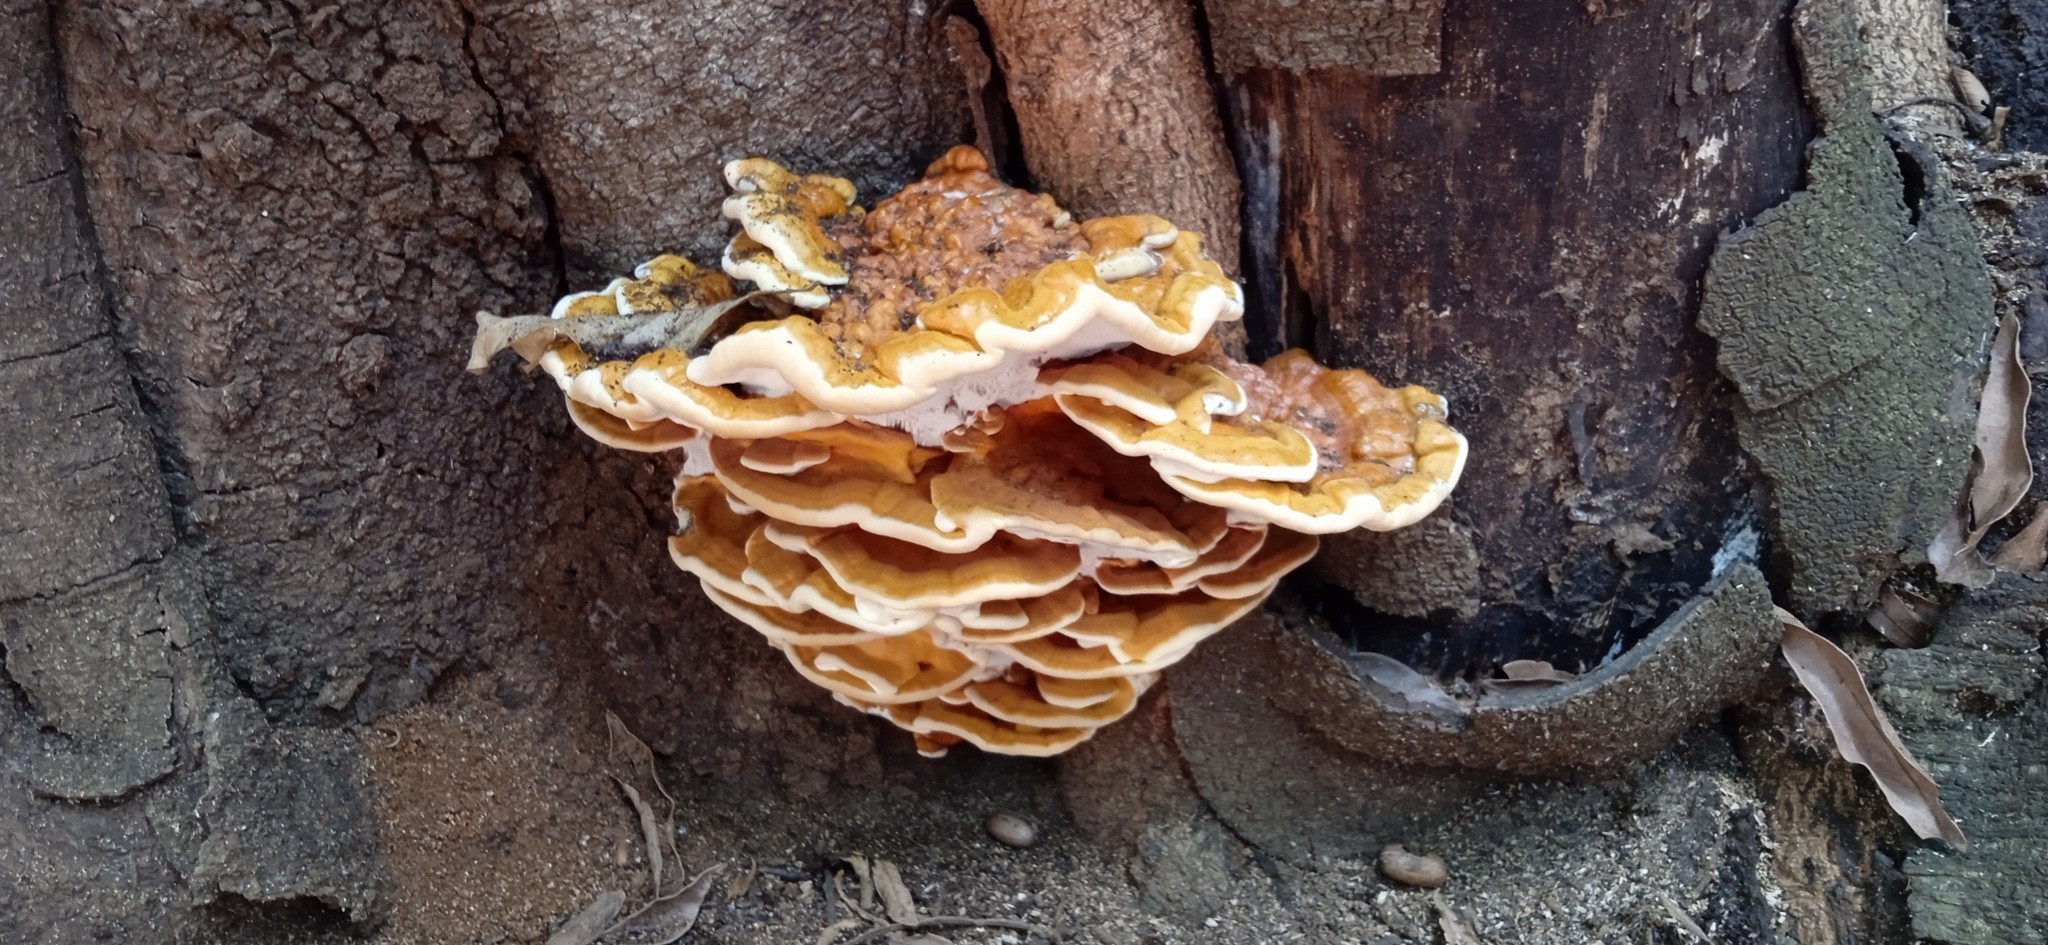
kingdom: Fungi
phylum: Basidiomycota
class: Agaricomycetes
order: Polyporales
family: Laetiporaceae
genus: Laetiporus
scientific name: Laetiporus sulphureus
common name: Chicken of the woods
